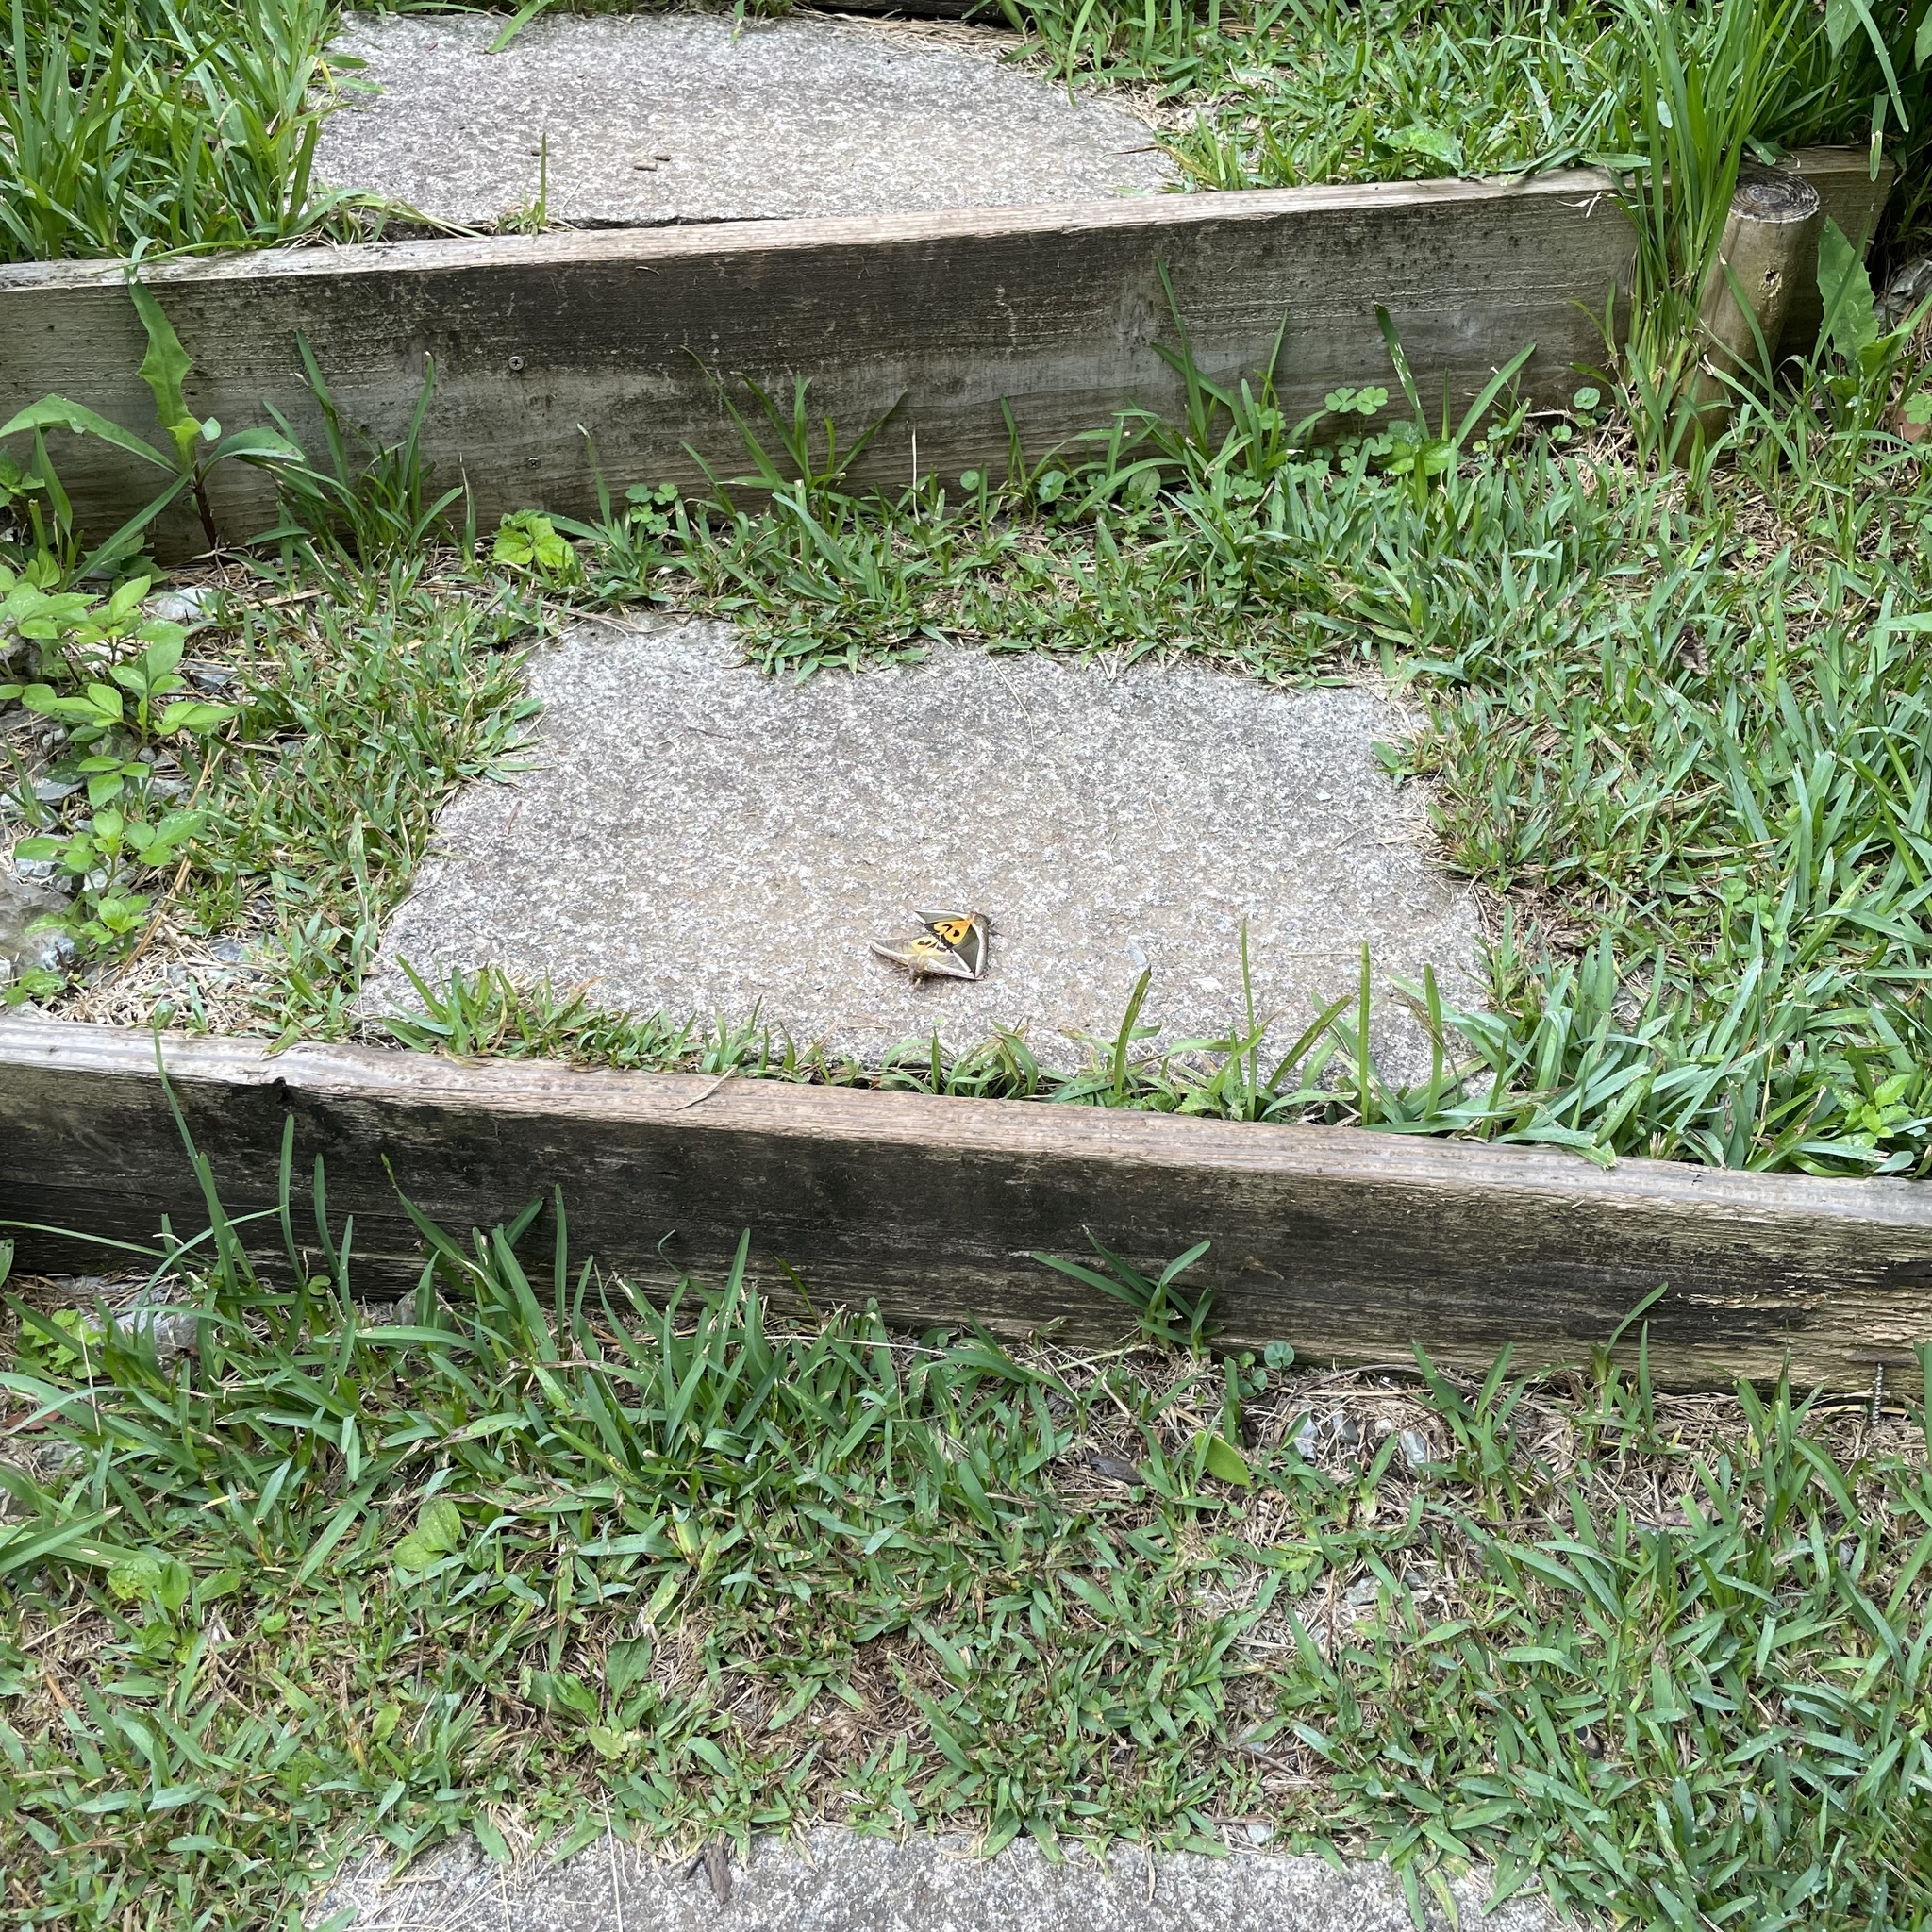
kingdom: Animalia
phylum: Arthropoda
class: Insecta
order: Lepidoptera
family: Erebidae
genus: Eudocima
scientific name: Eudocima salaminia
